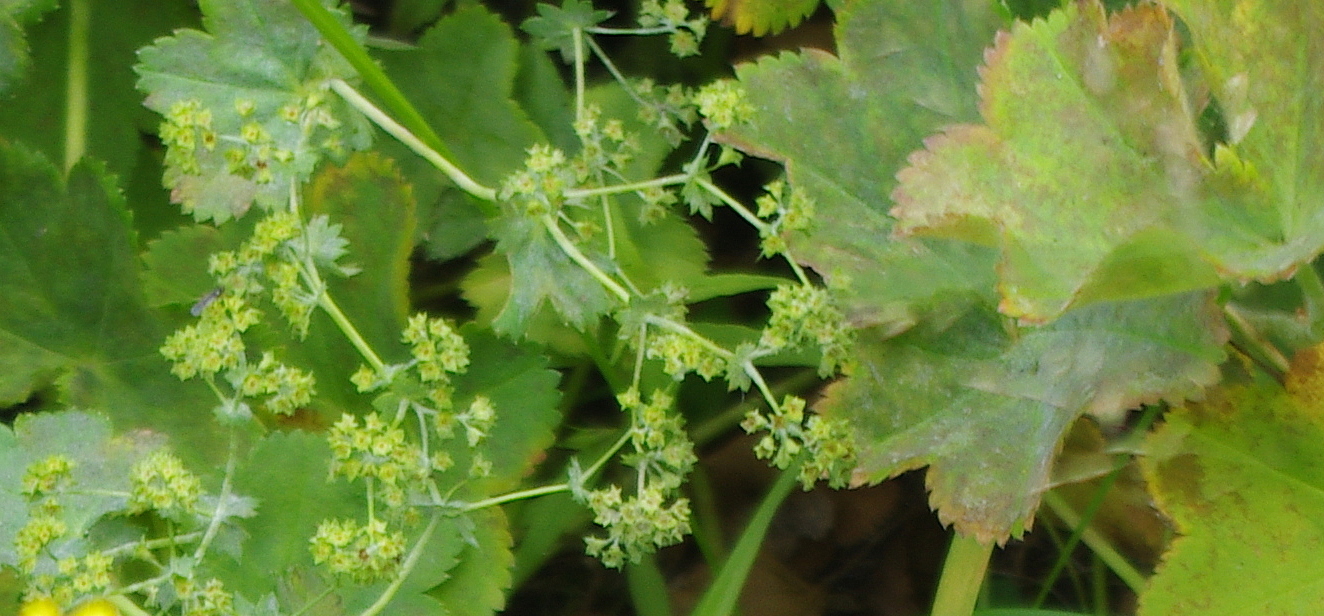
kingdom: Plantae
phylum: Tracheophyta
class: Magnoliopsida
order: Rosales
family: Rosaceae
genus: Alchemilla
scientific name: Alchemilla cymatophylla
